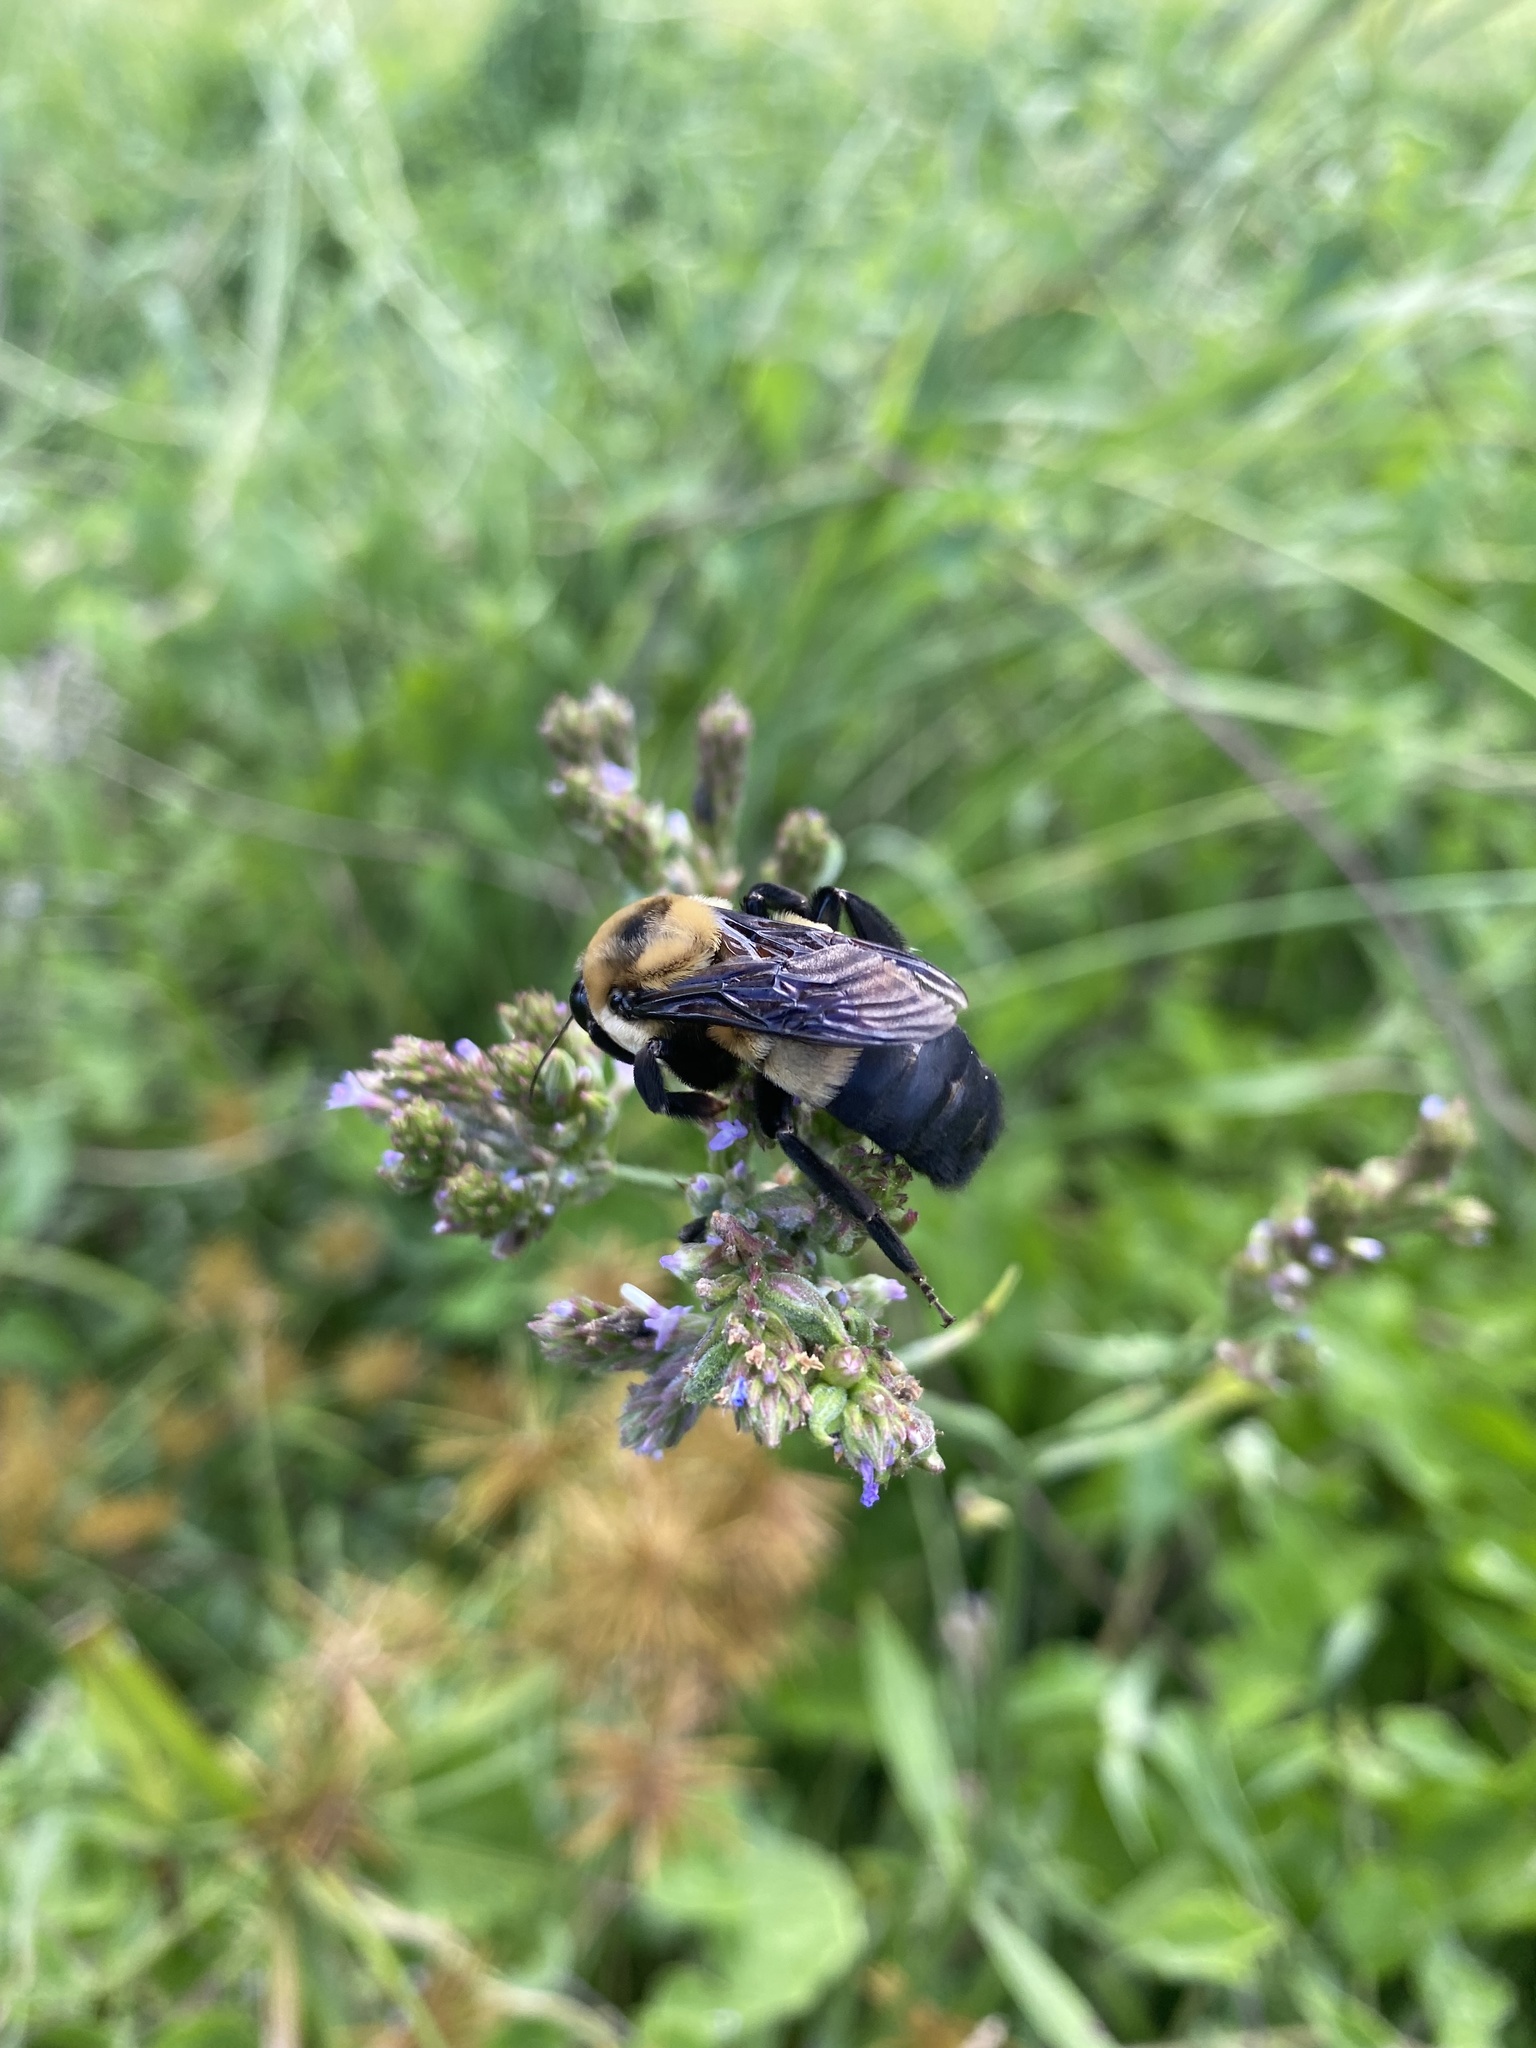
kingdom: Animalia
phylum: Arthropoda
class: Insecta
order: Hymenoptera
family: Apidae
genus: Bombus
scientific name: Bombus fraternus
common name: Southern plains bumble bee
